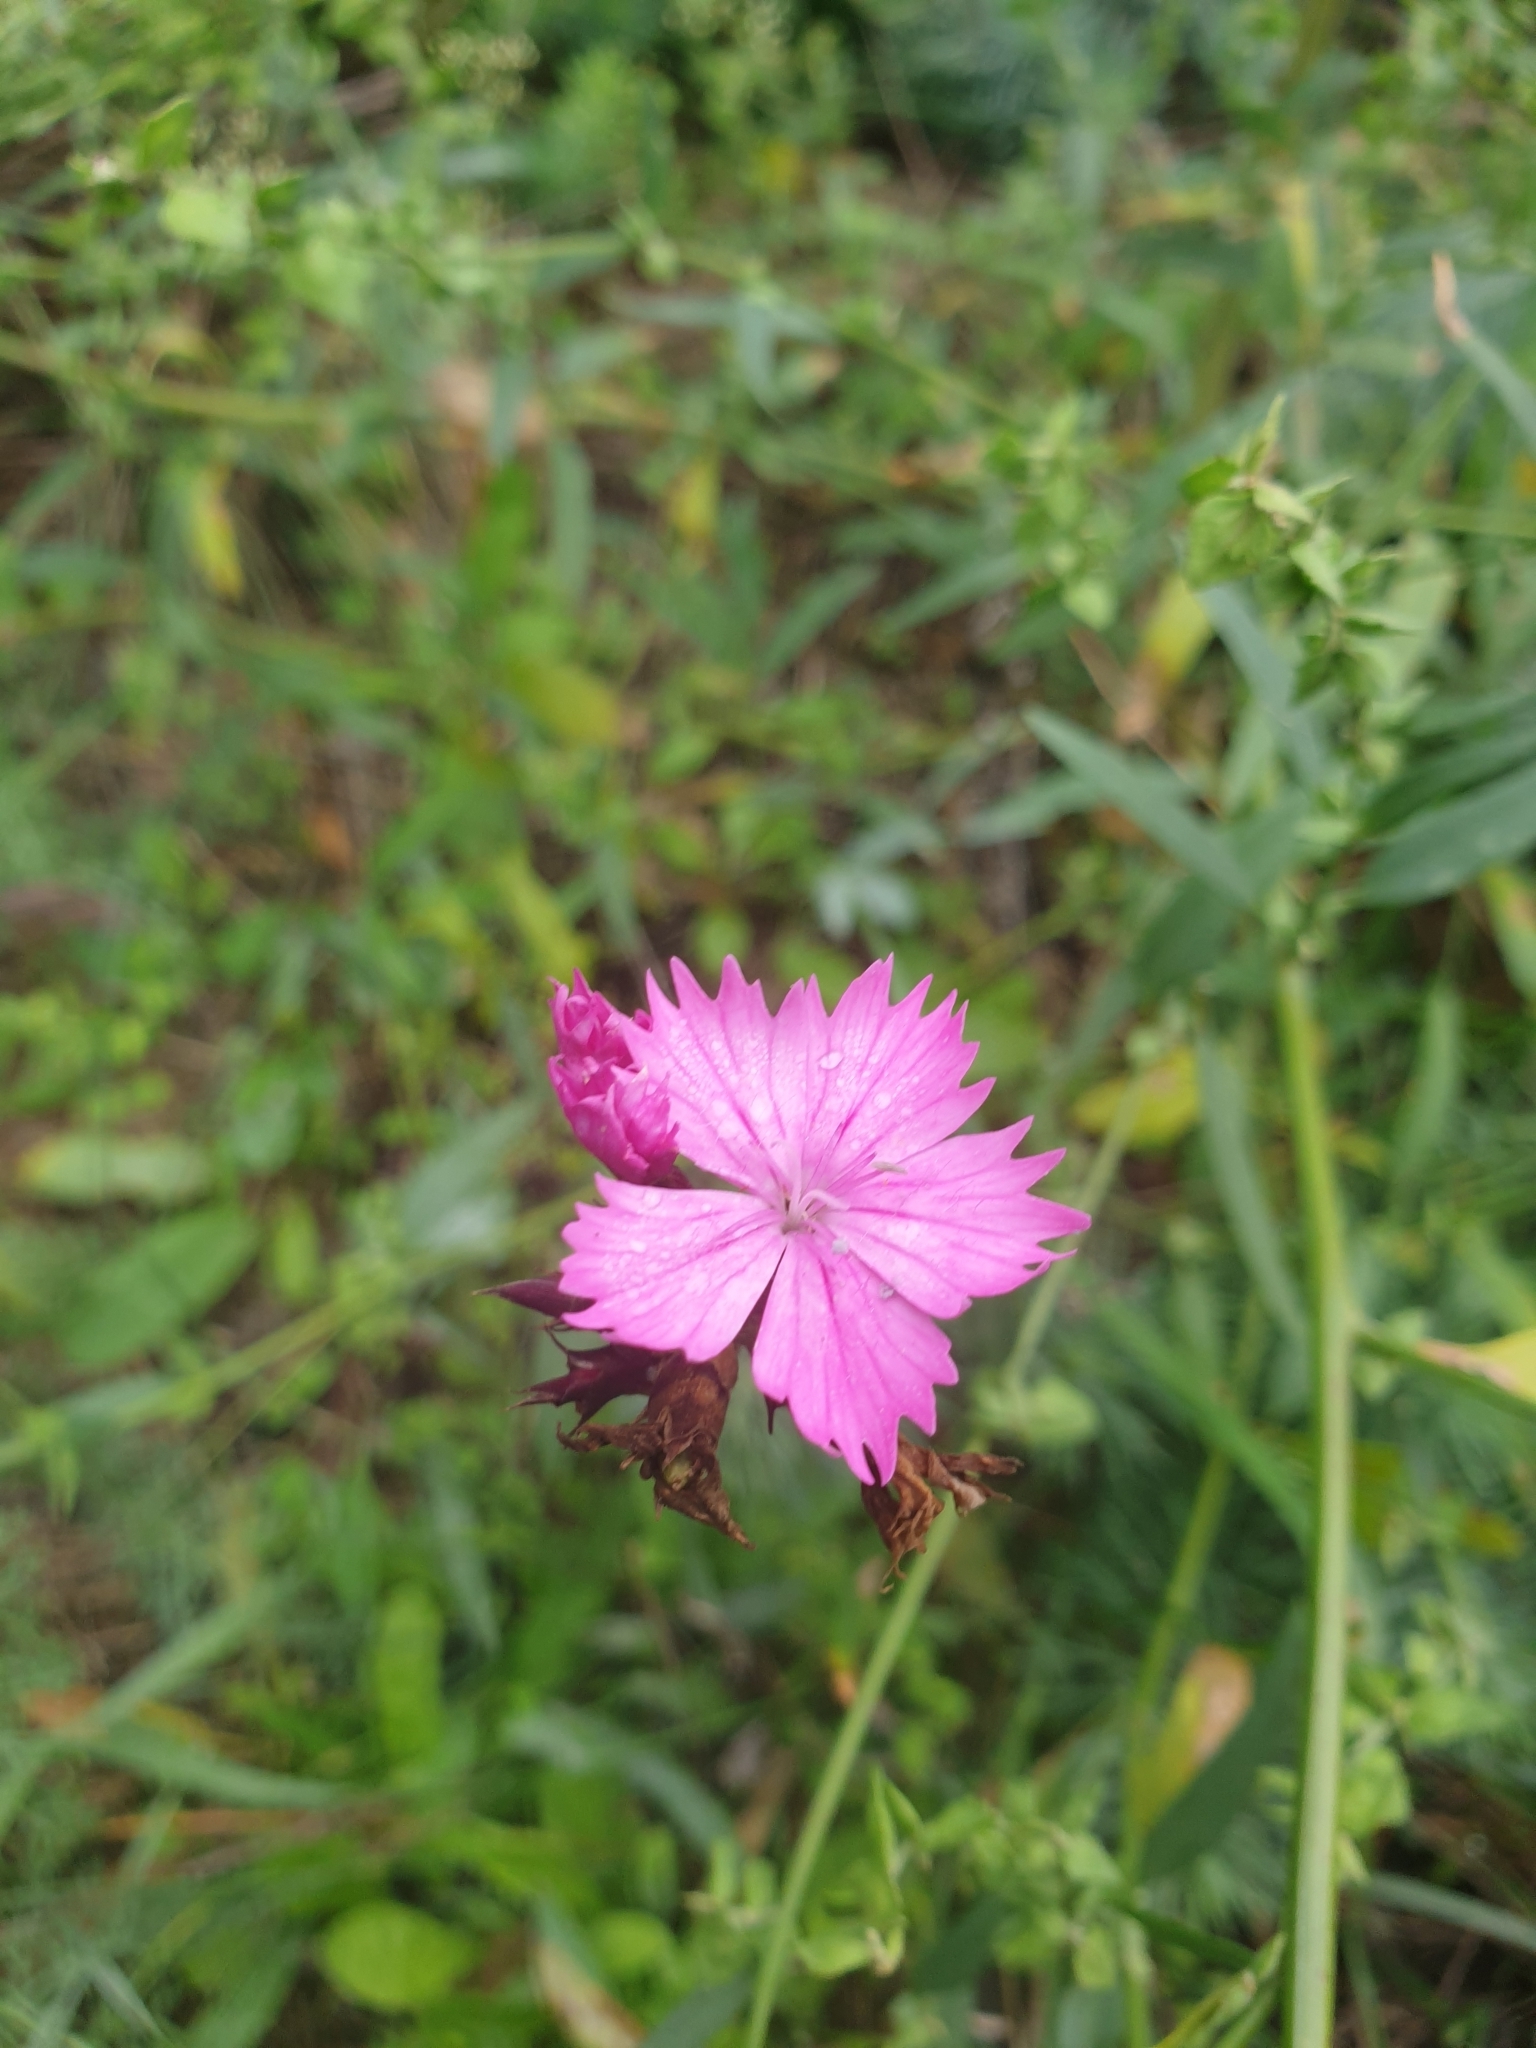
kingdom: Plantae
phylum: Tracheophyta
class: Magnoliopsida
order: Caryophyllales
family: Caryophyllaceae
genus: Dianthus
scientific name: Dianthus carthusianorum
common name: Carthusian pink
